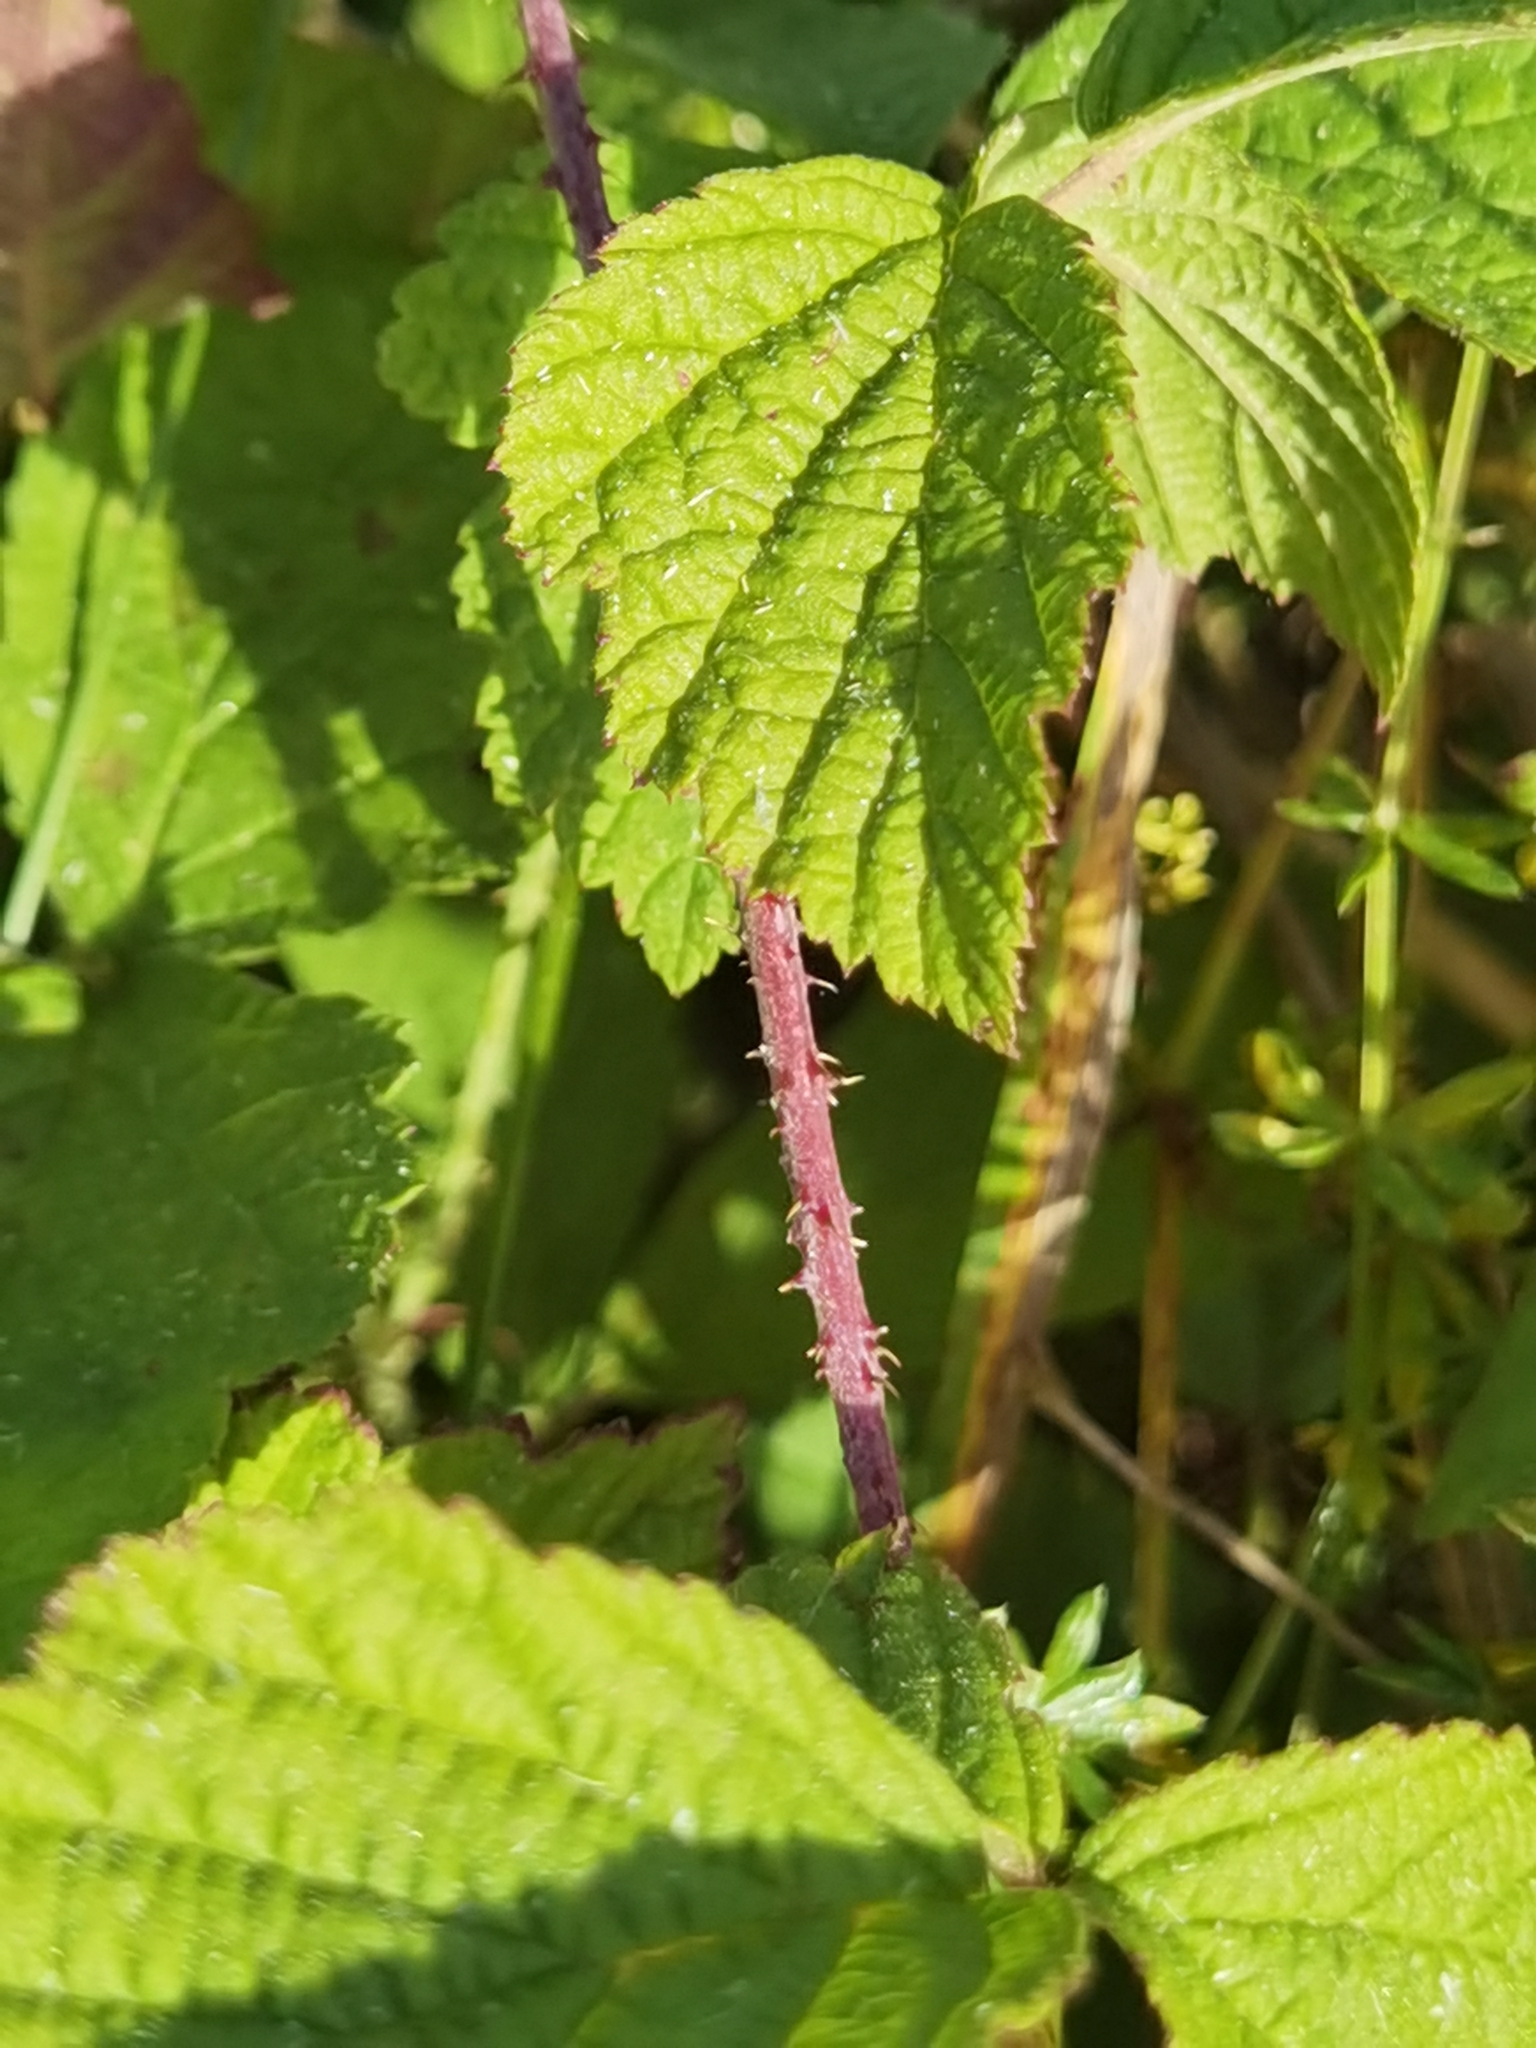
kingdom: Plantae
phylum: Tracheophyta
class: Magnoliopsida
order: Rosales
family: Rosaceae
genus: Rubus
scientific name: Rubus caesius
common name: Dewberry
